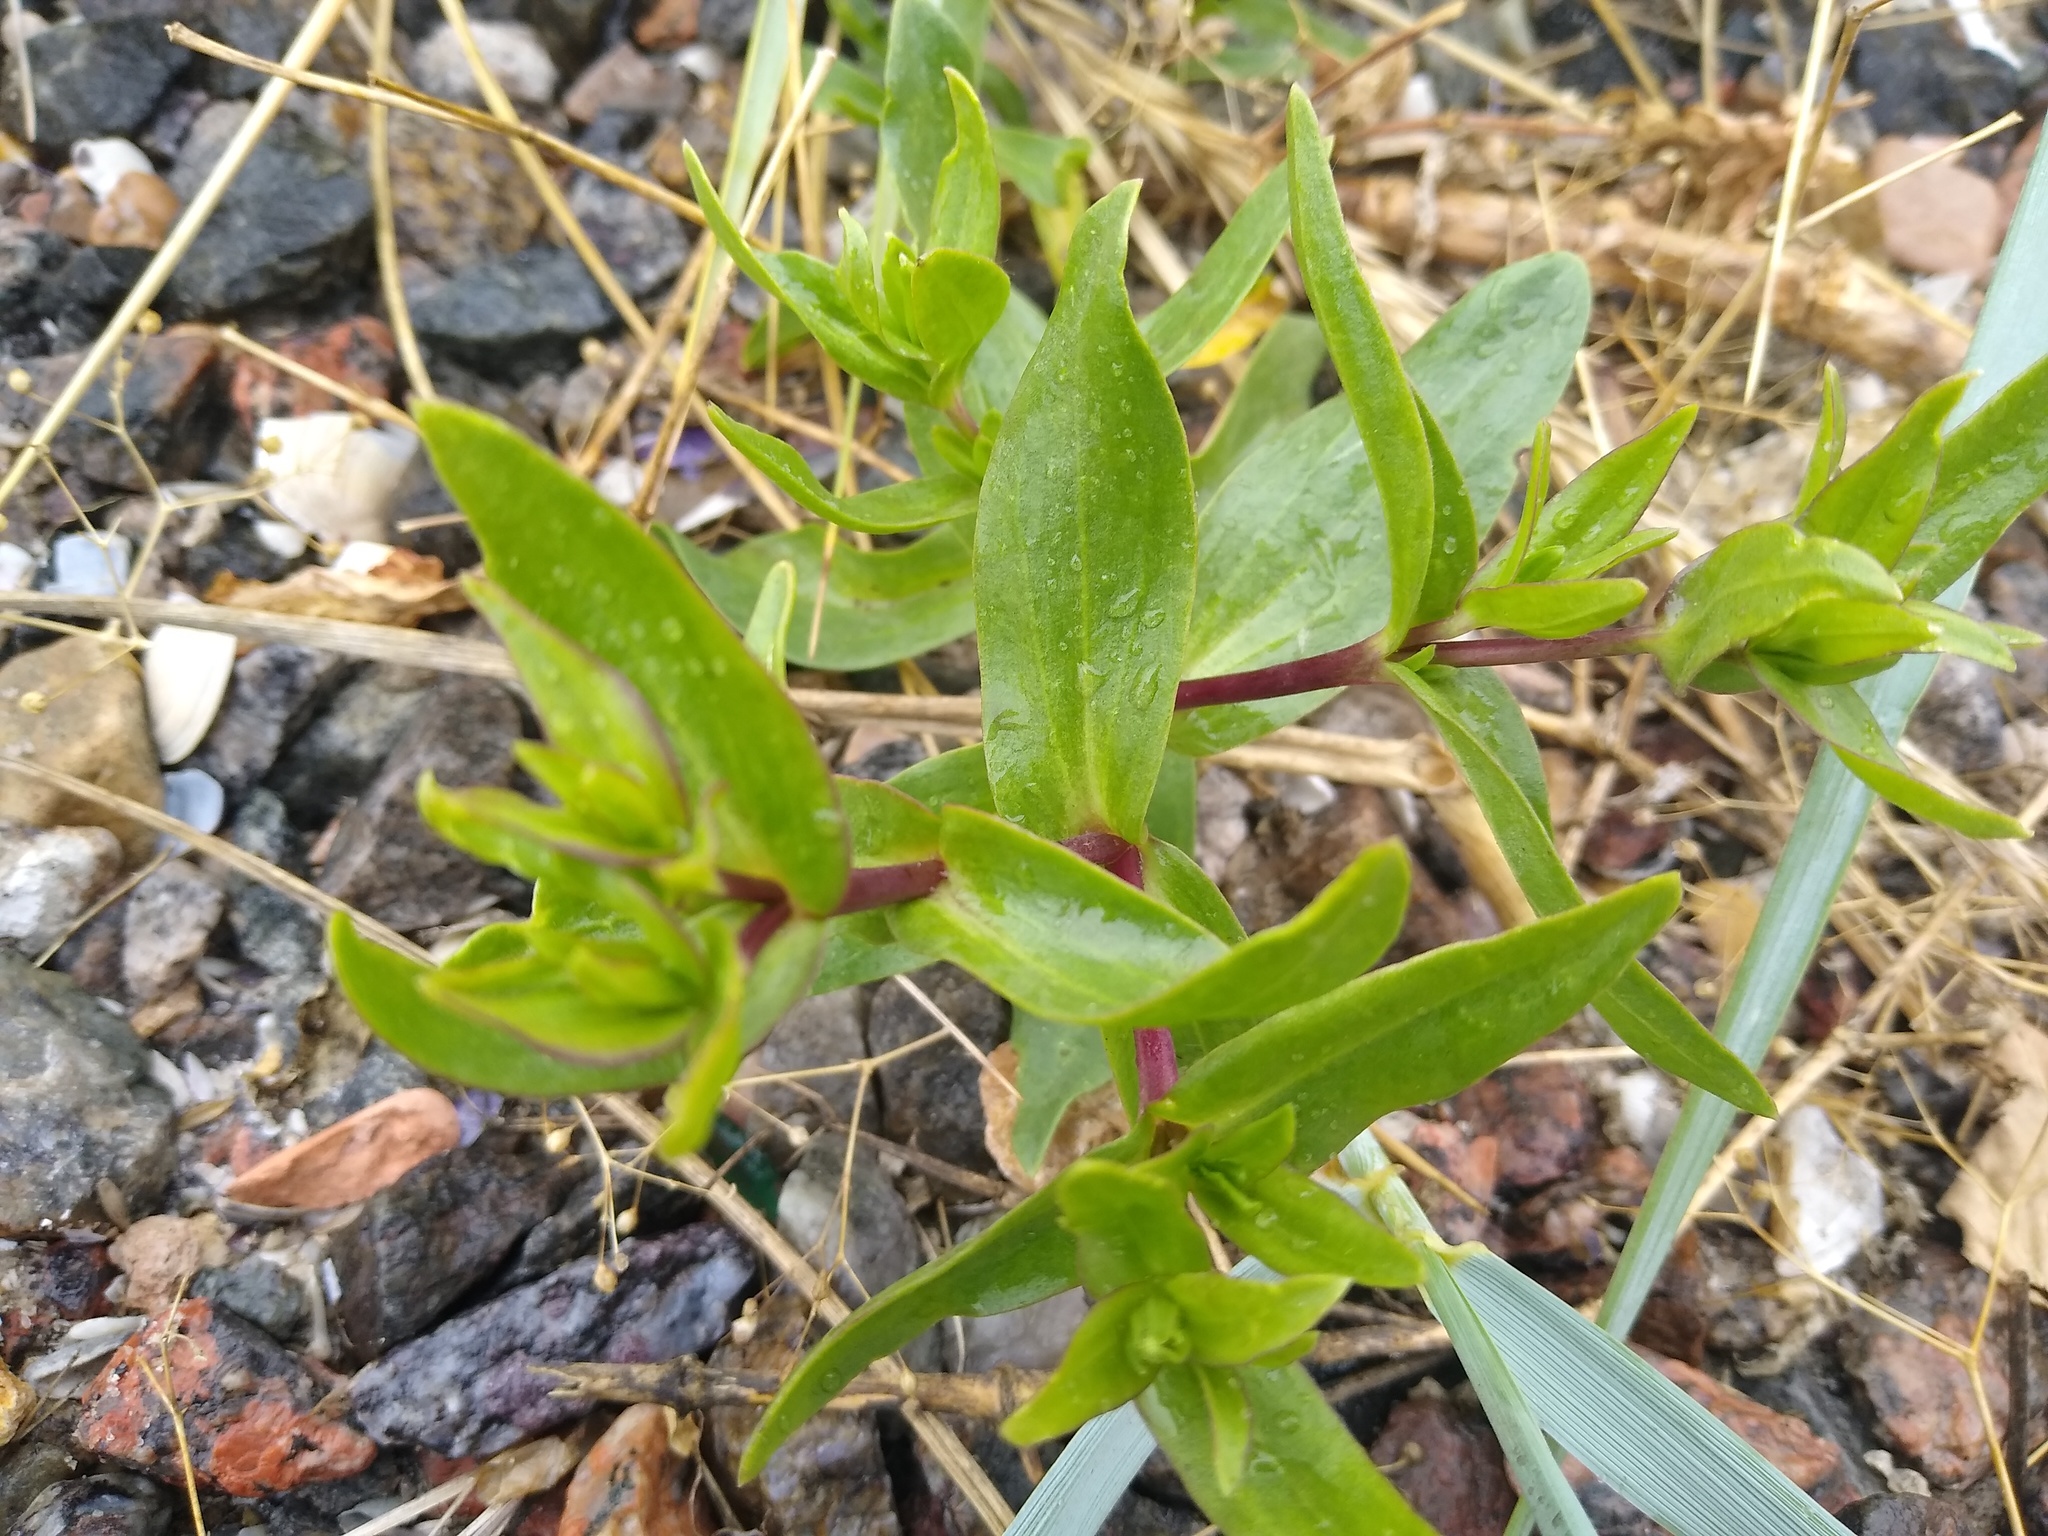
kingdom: Plantae
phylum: Tracheophyta
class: Magnoliopsida
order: Caryophyllales
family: Caryophyllaceae
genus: Gypsophila
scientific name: Gypsophila perfoliata
